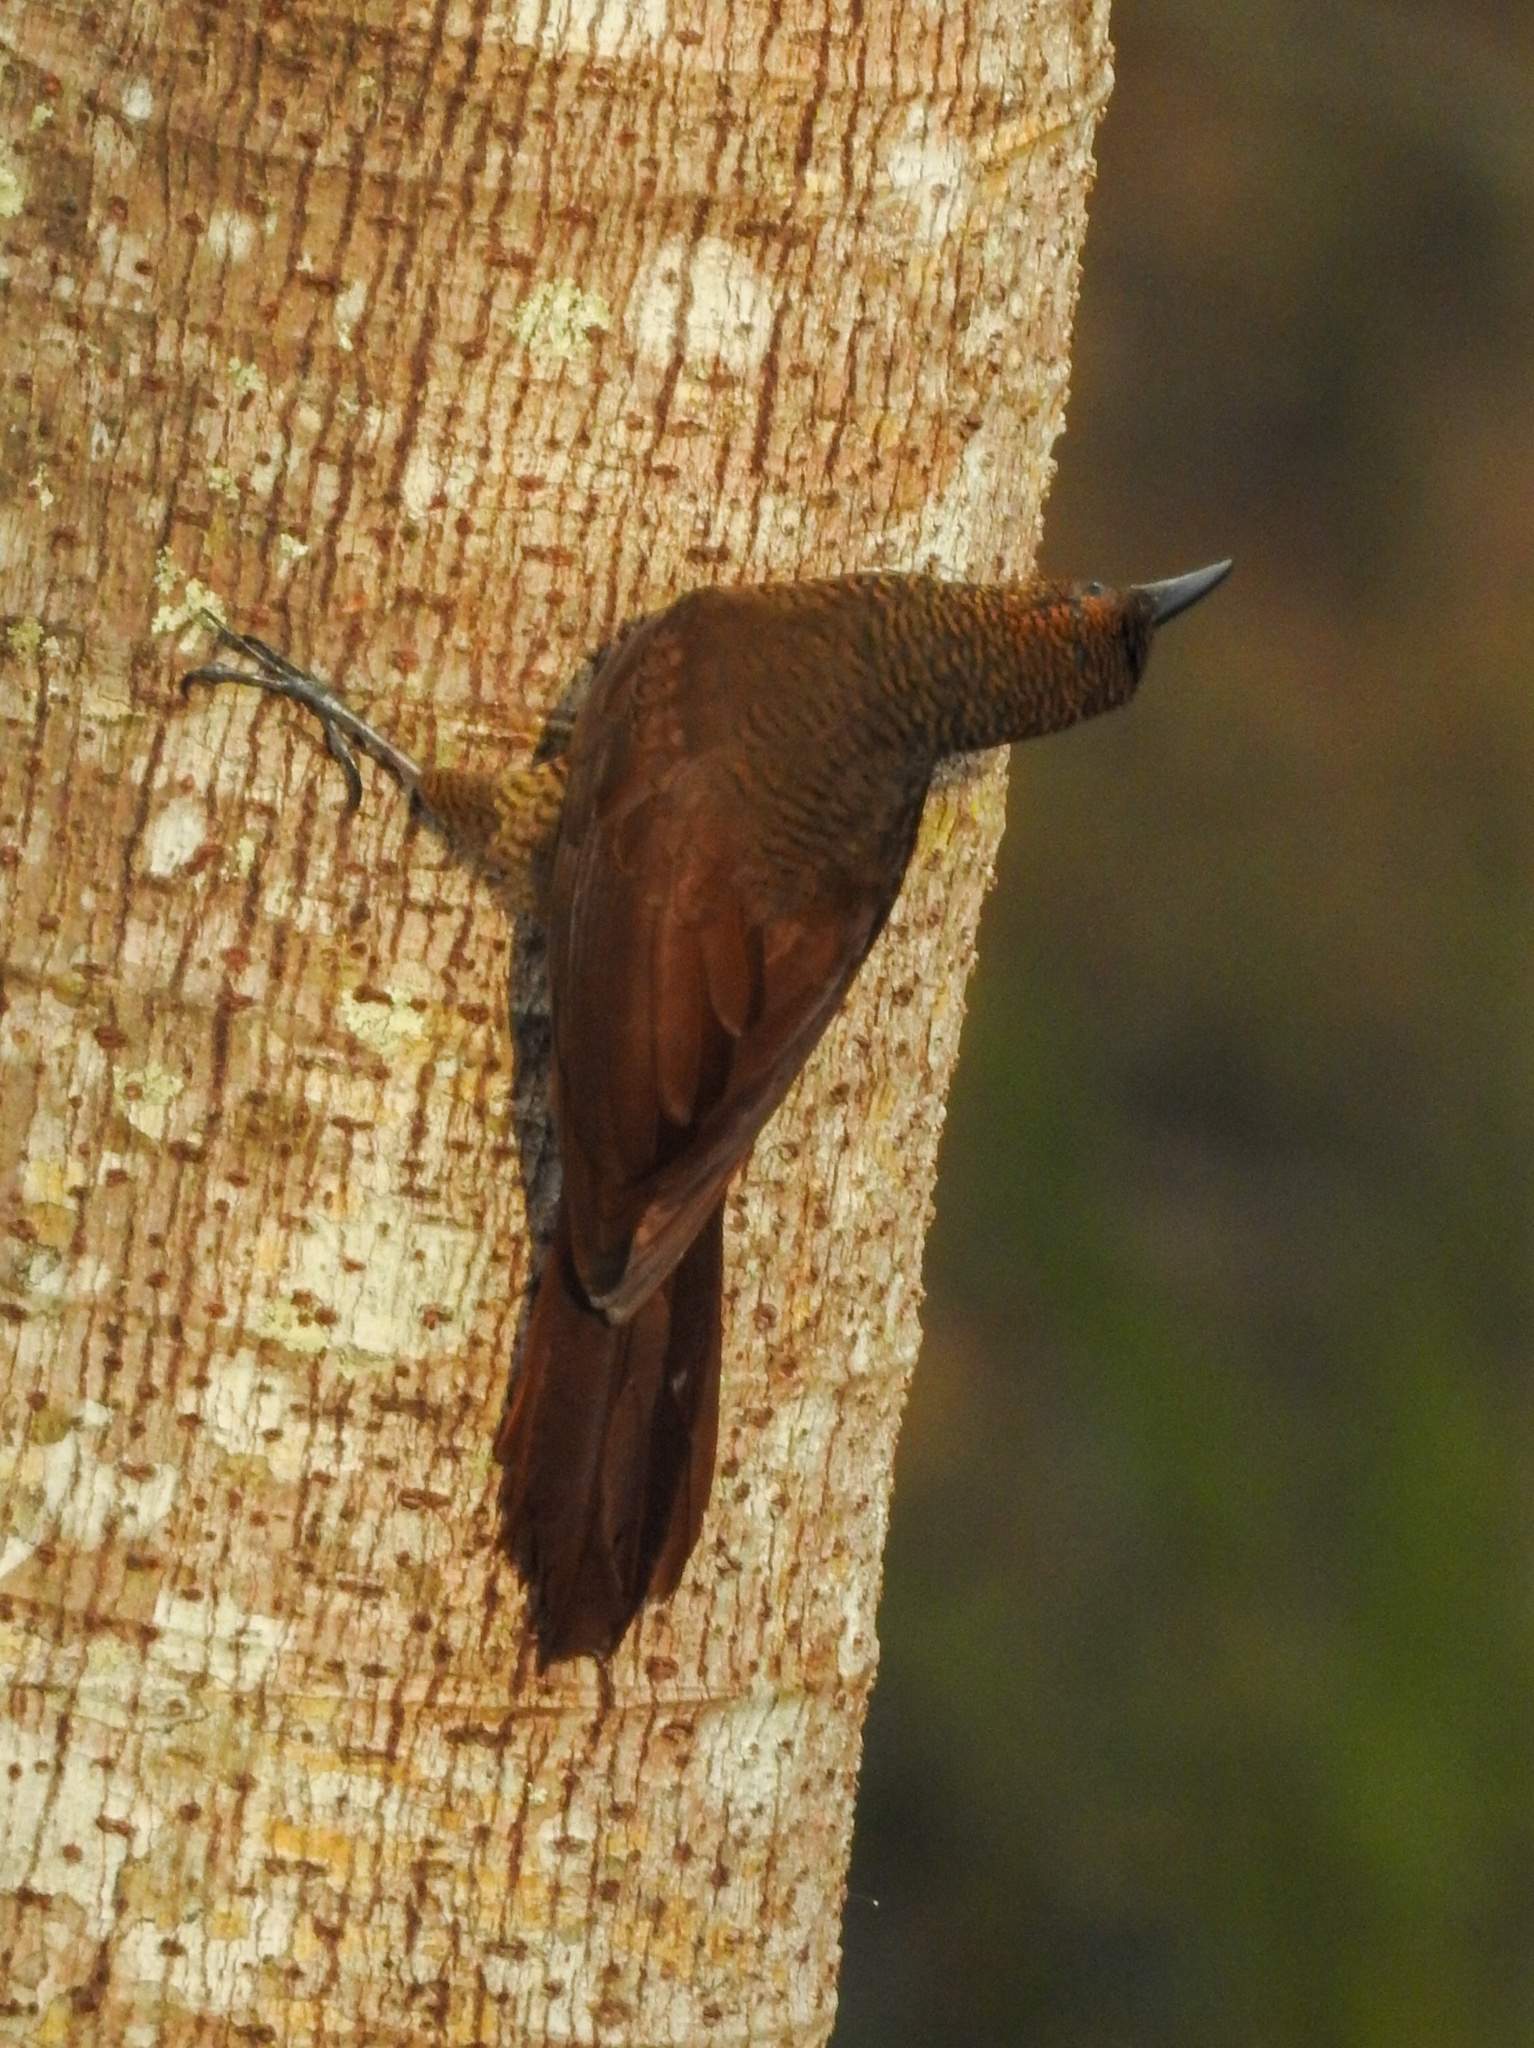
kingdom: Animalia
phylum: Chordata
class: Aves
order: Passeriformes
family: Furnariidae
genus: Dendrocolaptes
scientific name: Dendrocolaptes sanctithomae
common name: Northern barred-woodcreeper
